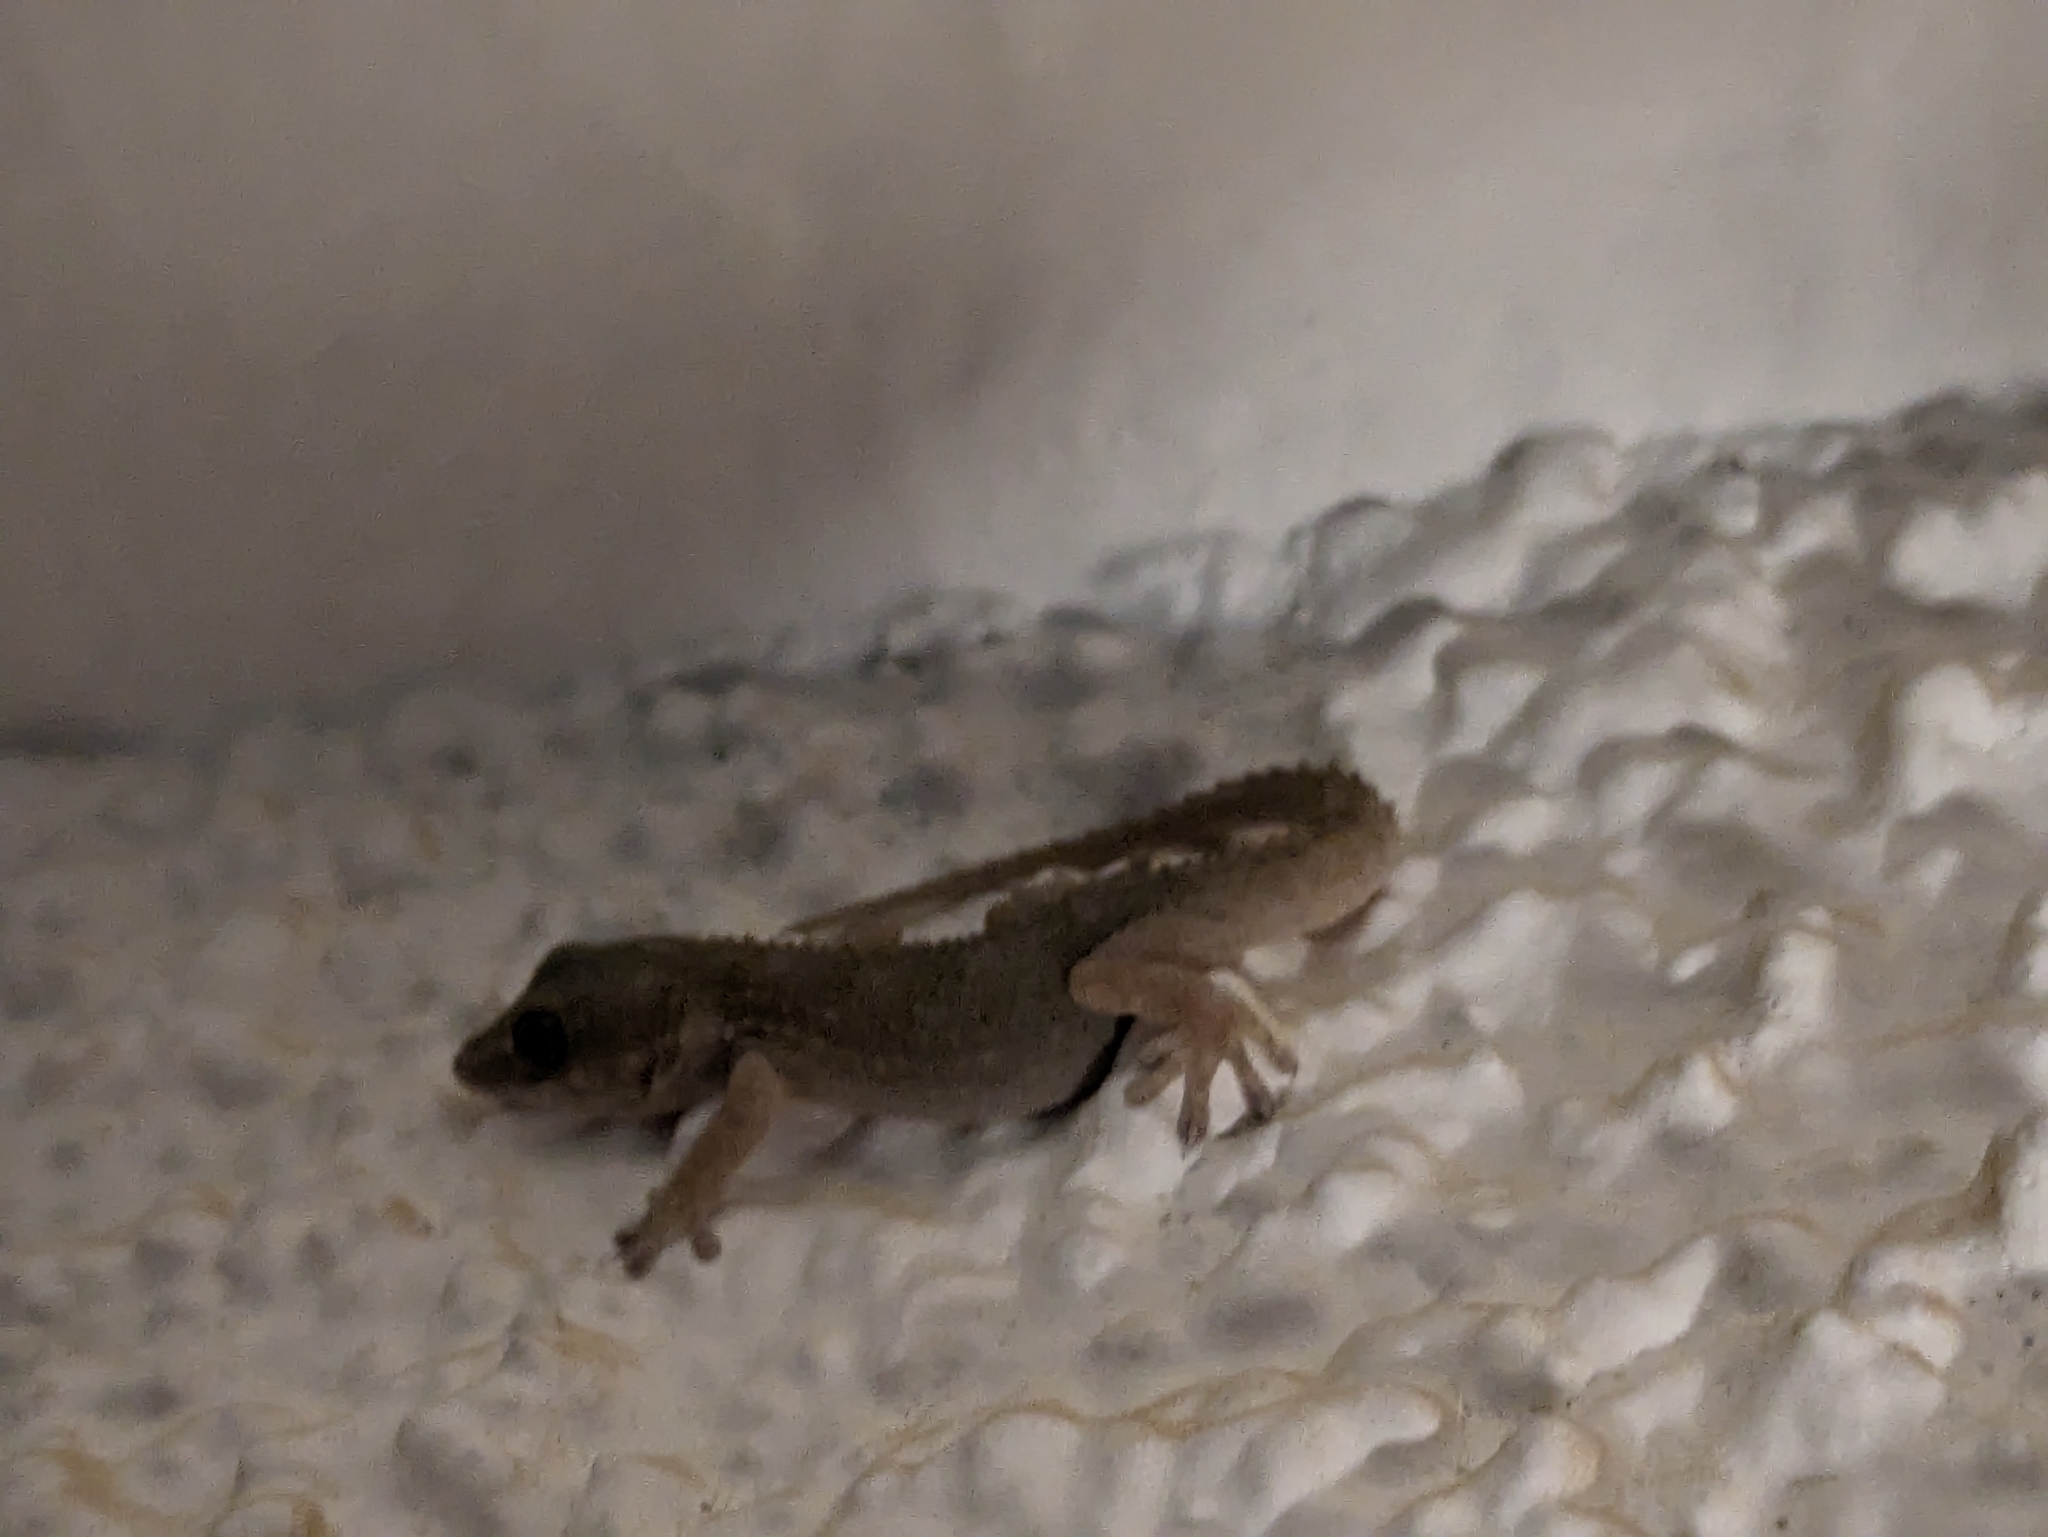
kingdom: Animalia
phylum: Chordata
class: Squamata
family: Phyllodactylidae
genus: Tarentola
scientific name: Tarentola delalandii
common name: Tenerife wall gecko
